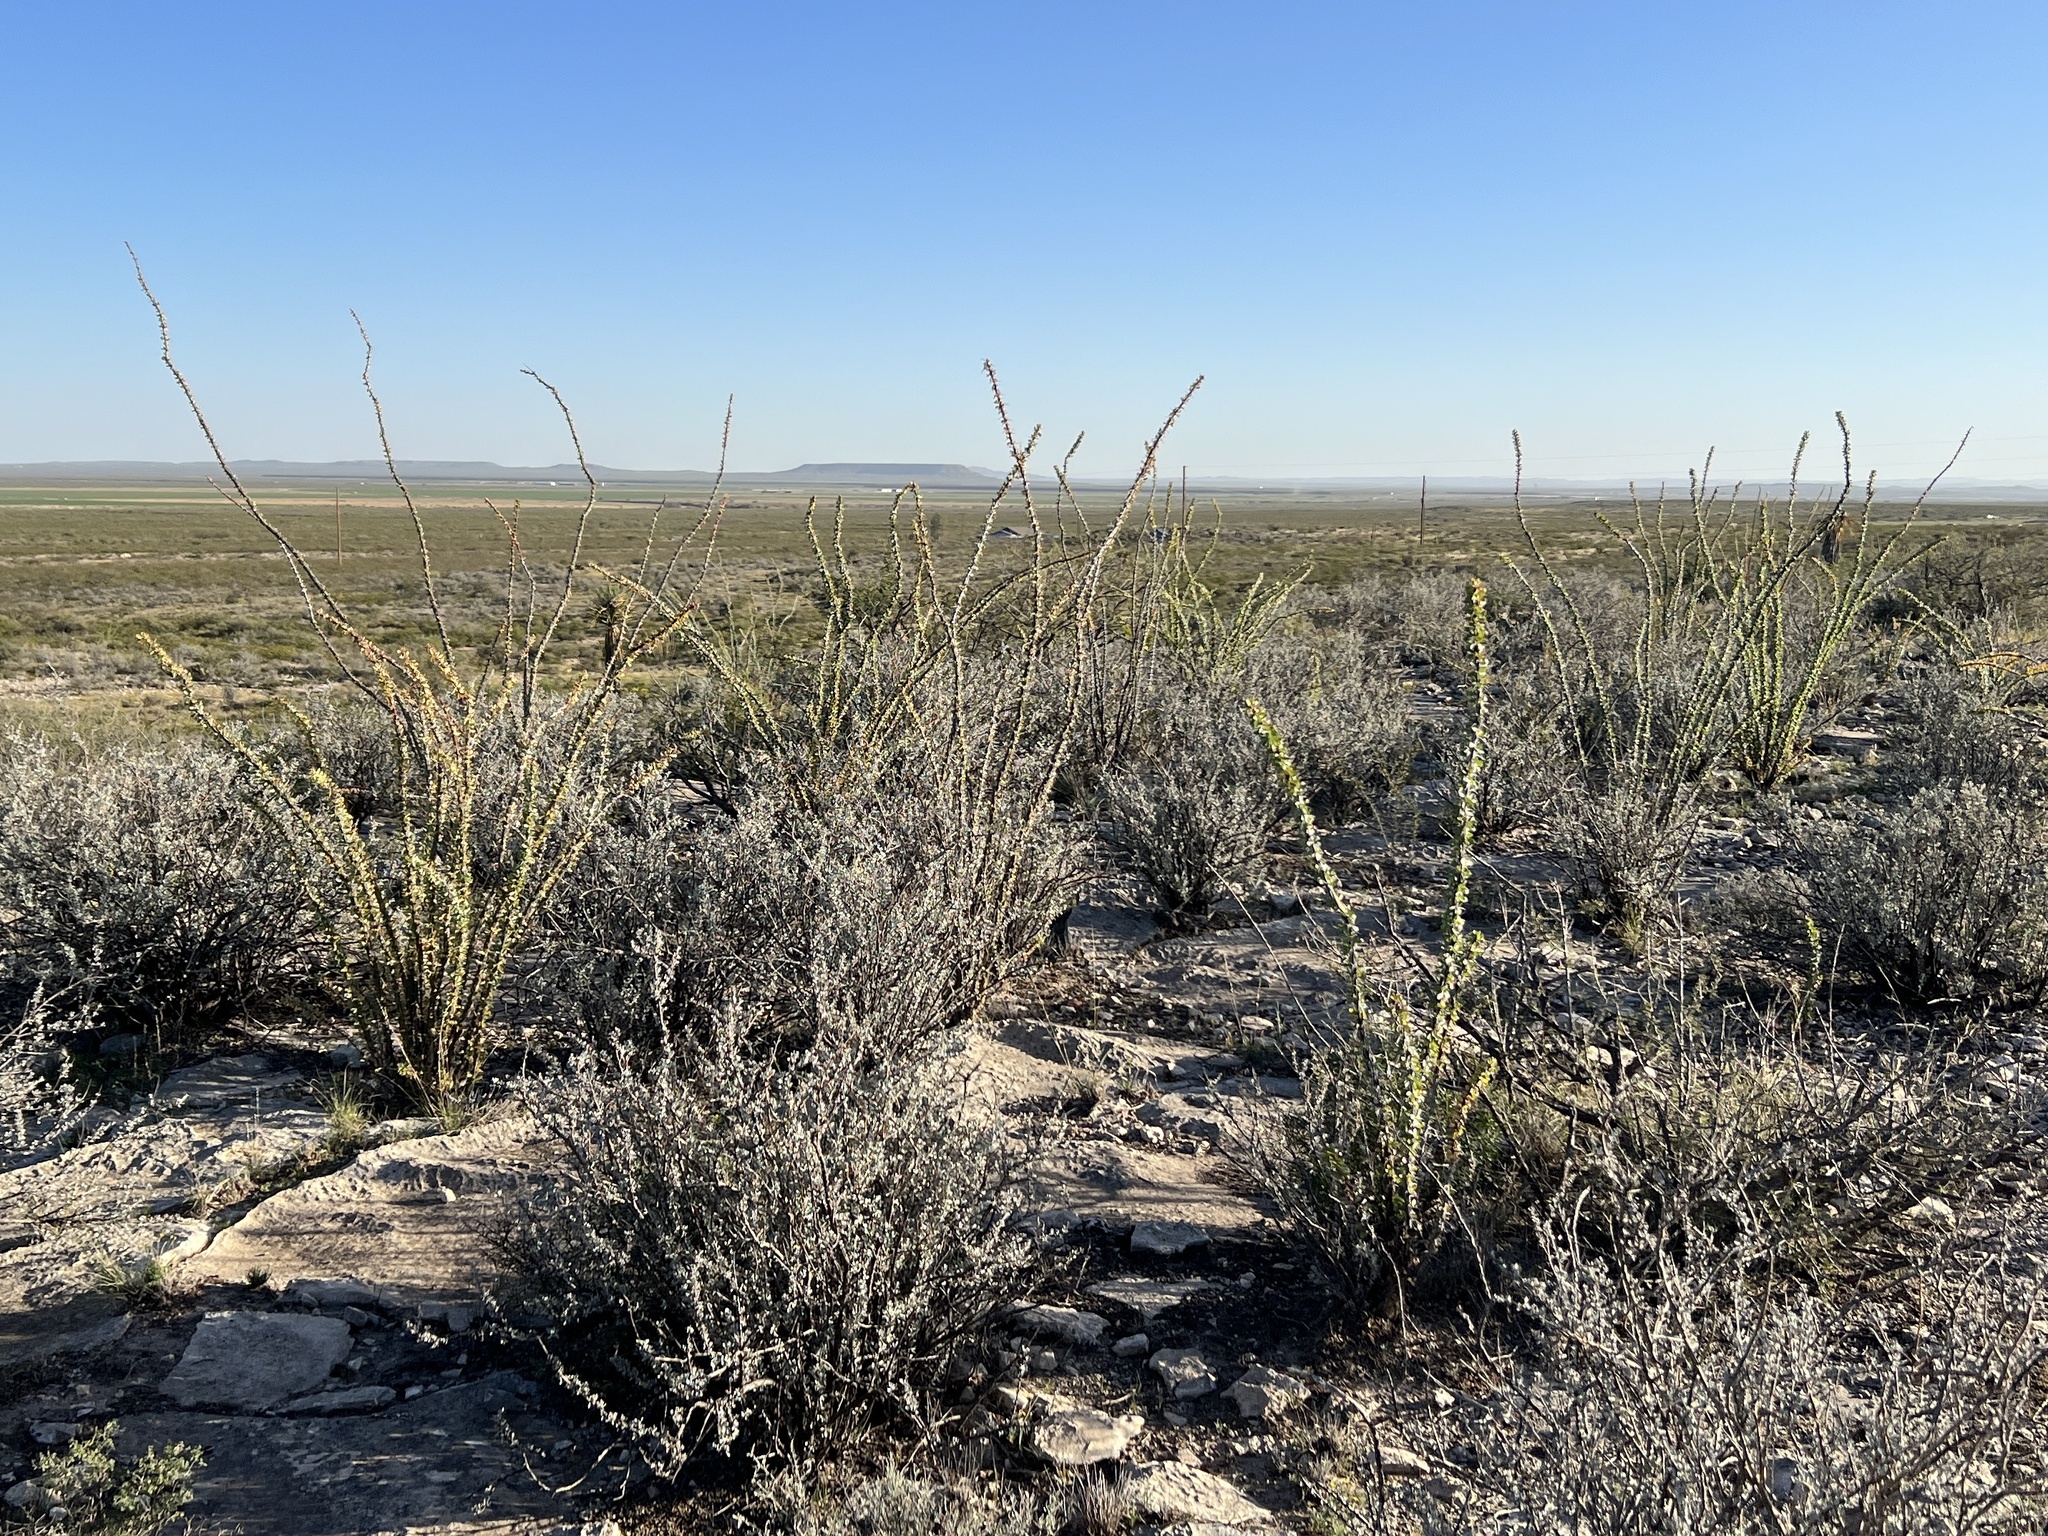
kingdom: Plantae
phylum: Tracheophyta
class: Magnoliopsida
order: Ericales
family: Fouquieriaceae
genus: Fouquieria
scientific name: Fouquieria splendens
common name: Vine-cactus
